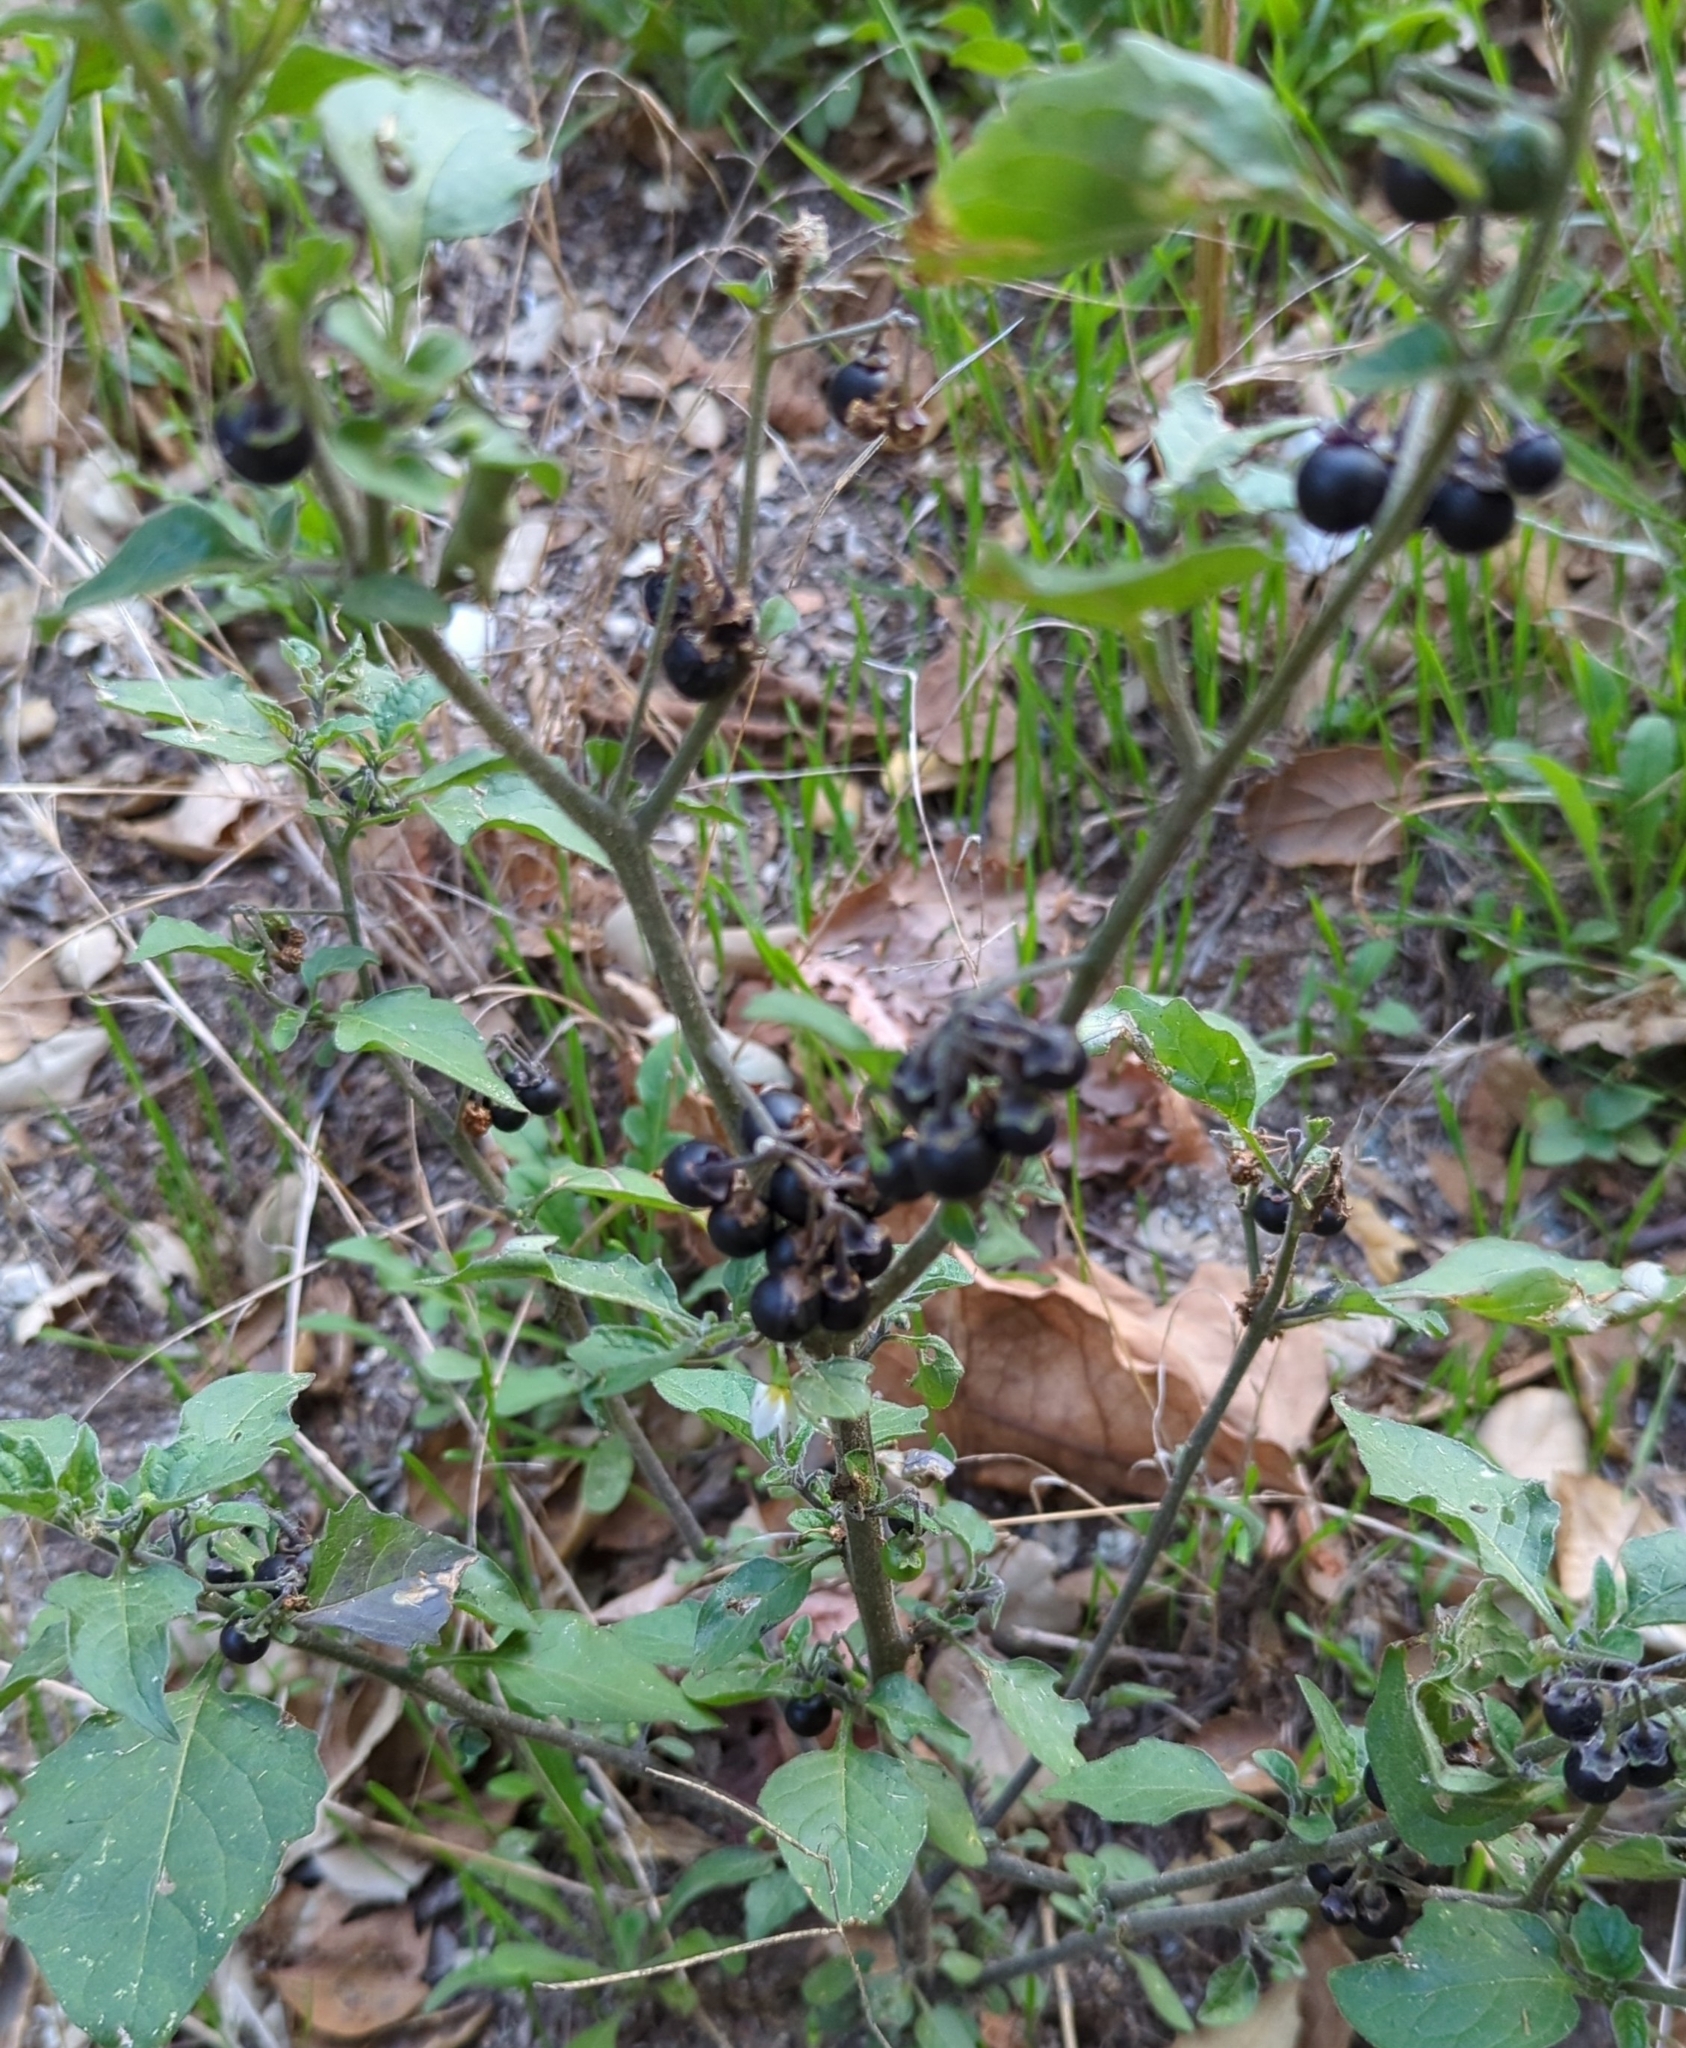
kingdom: Plantae
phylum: Tracheophyta
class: Magnoliopsida
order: Solanales
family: Solanaceae
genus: Solanum
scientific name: Solanum nigrum
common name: Black nightshade
